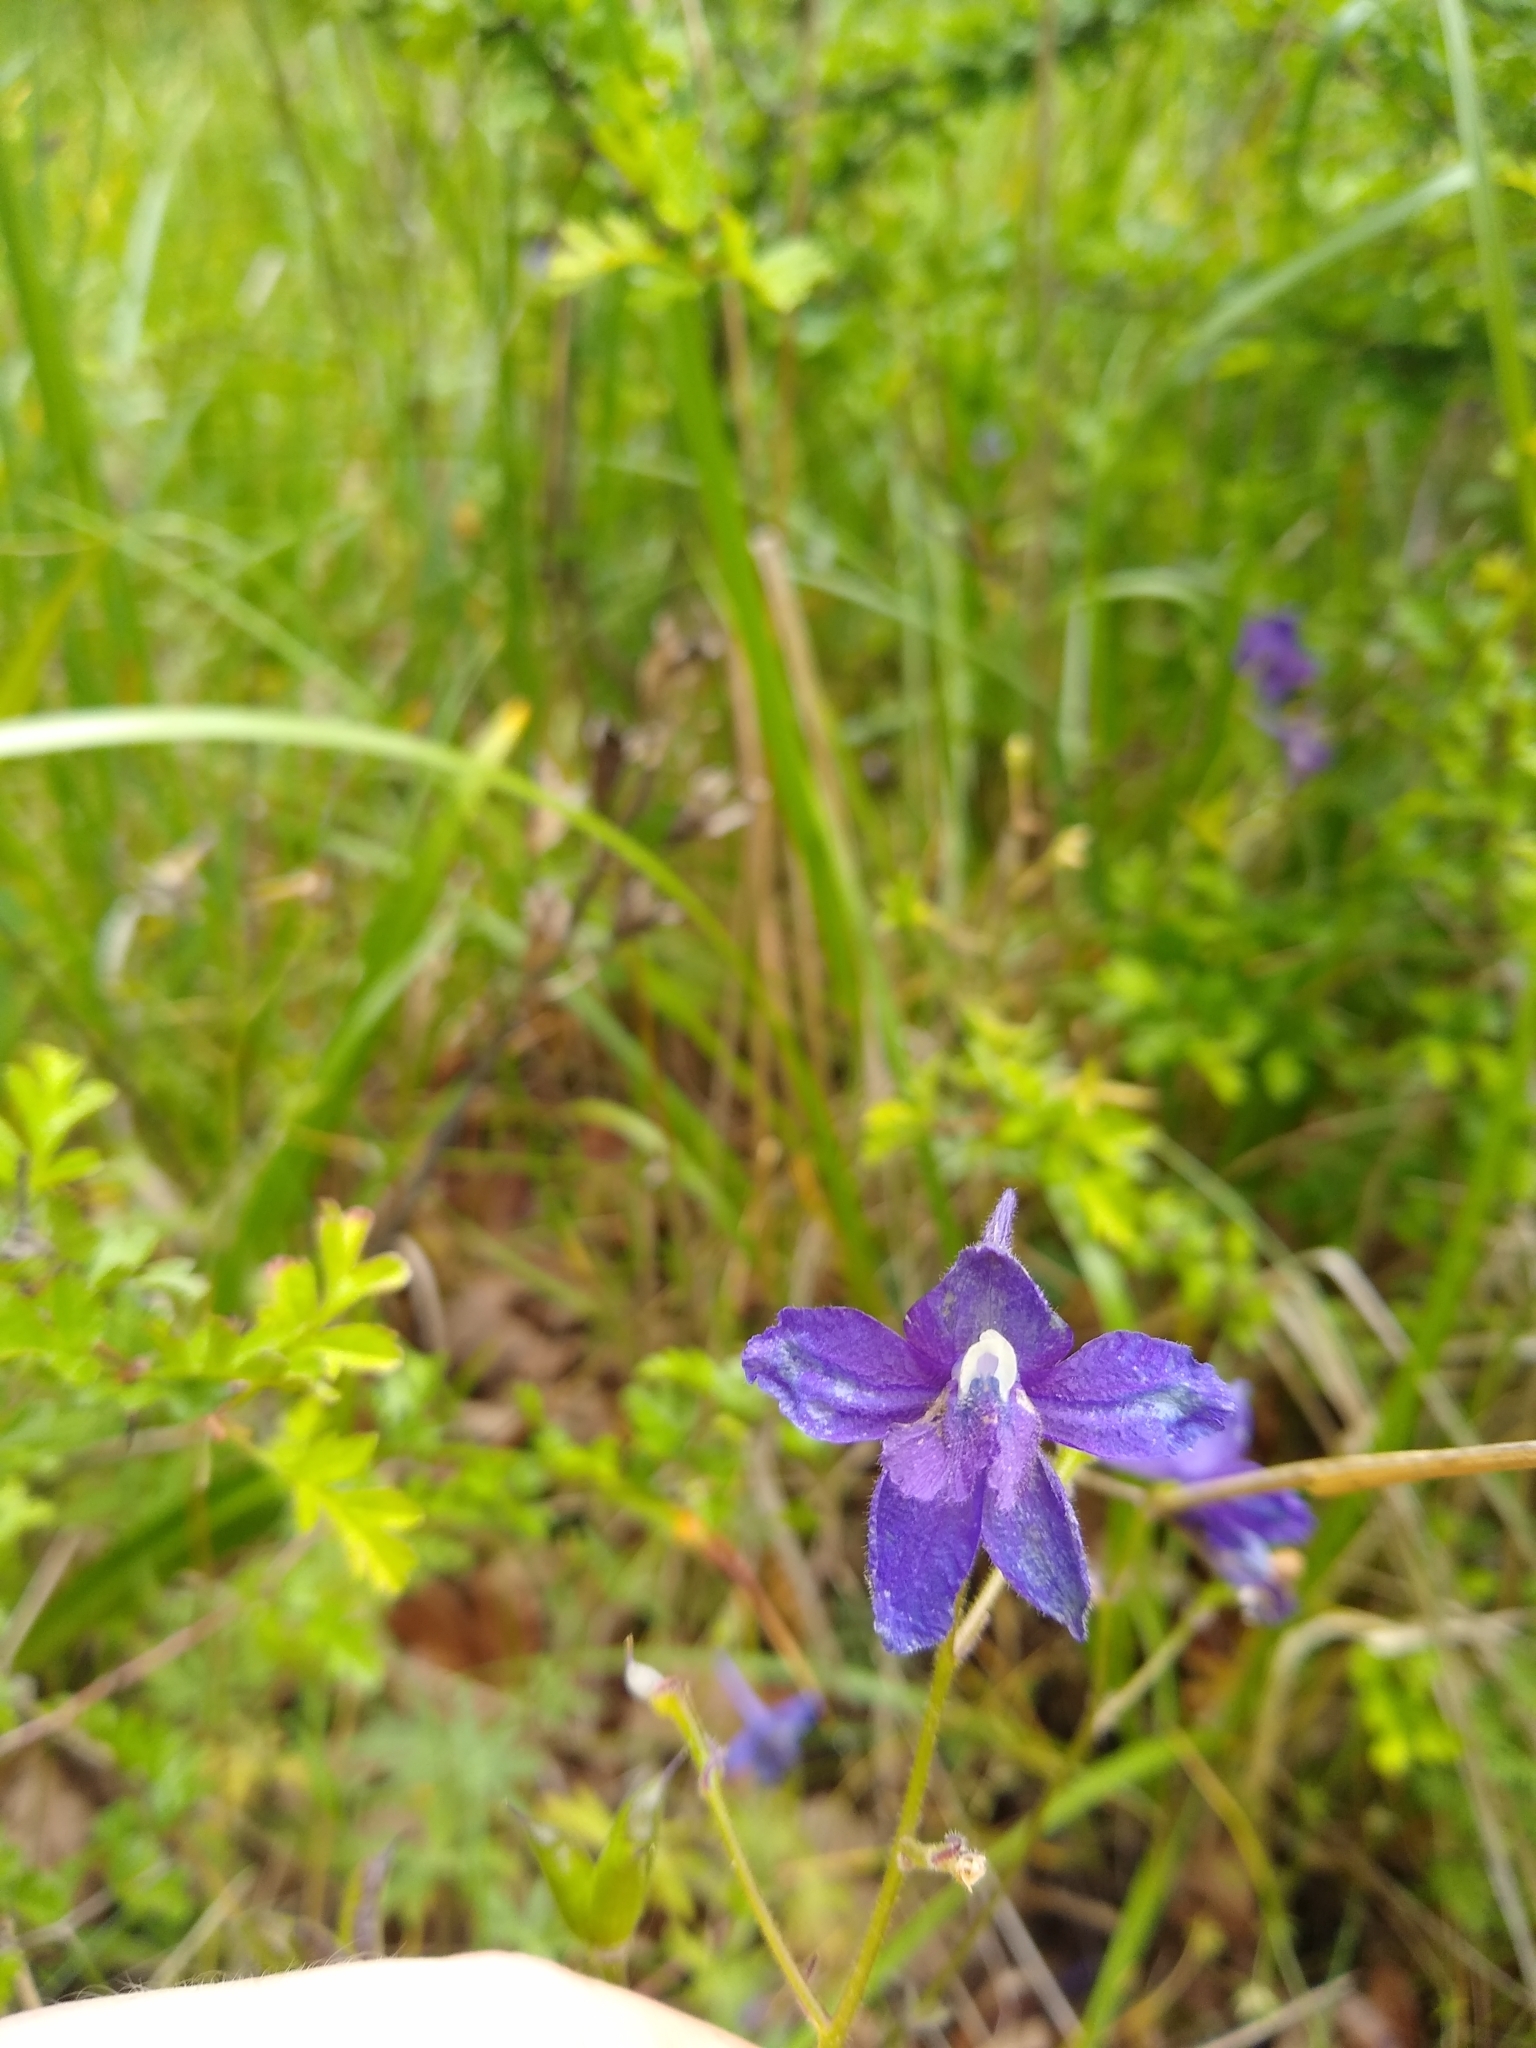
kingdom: Plantae
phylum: Tracheophyta
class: Magnoliopsida
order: Ranunculales
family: Ranunculaceae
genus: Delphinium
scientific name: Delphinium menziesii
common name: Menzies's larkspur
